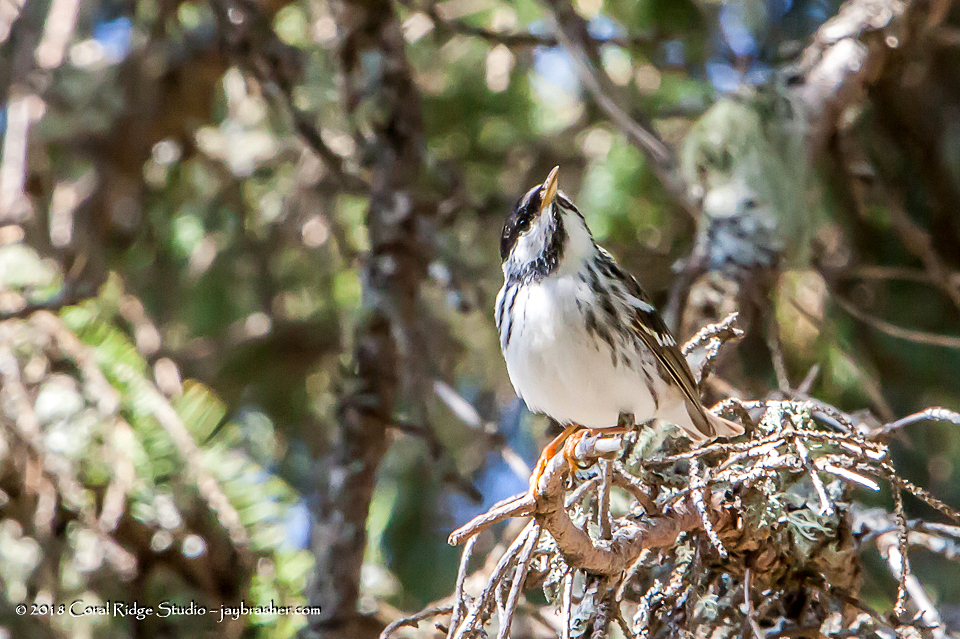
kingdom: Animalia
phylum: Chordata
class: Aves
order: Passeriformes
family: Parulidae
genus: Setophaga
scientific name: Setophaga striata
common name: Blackpoll warbler
